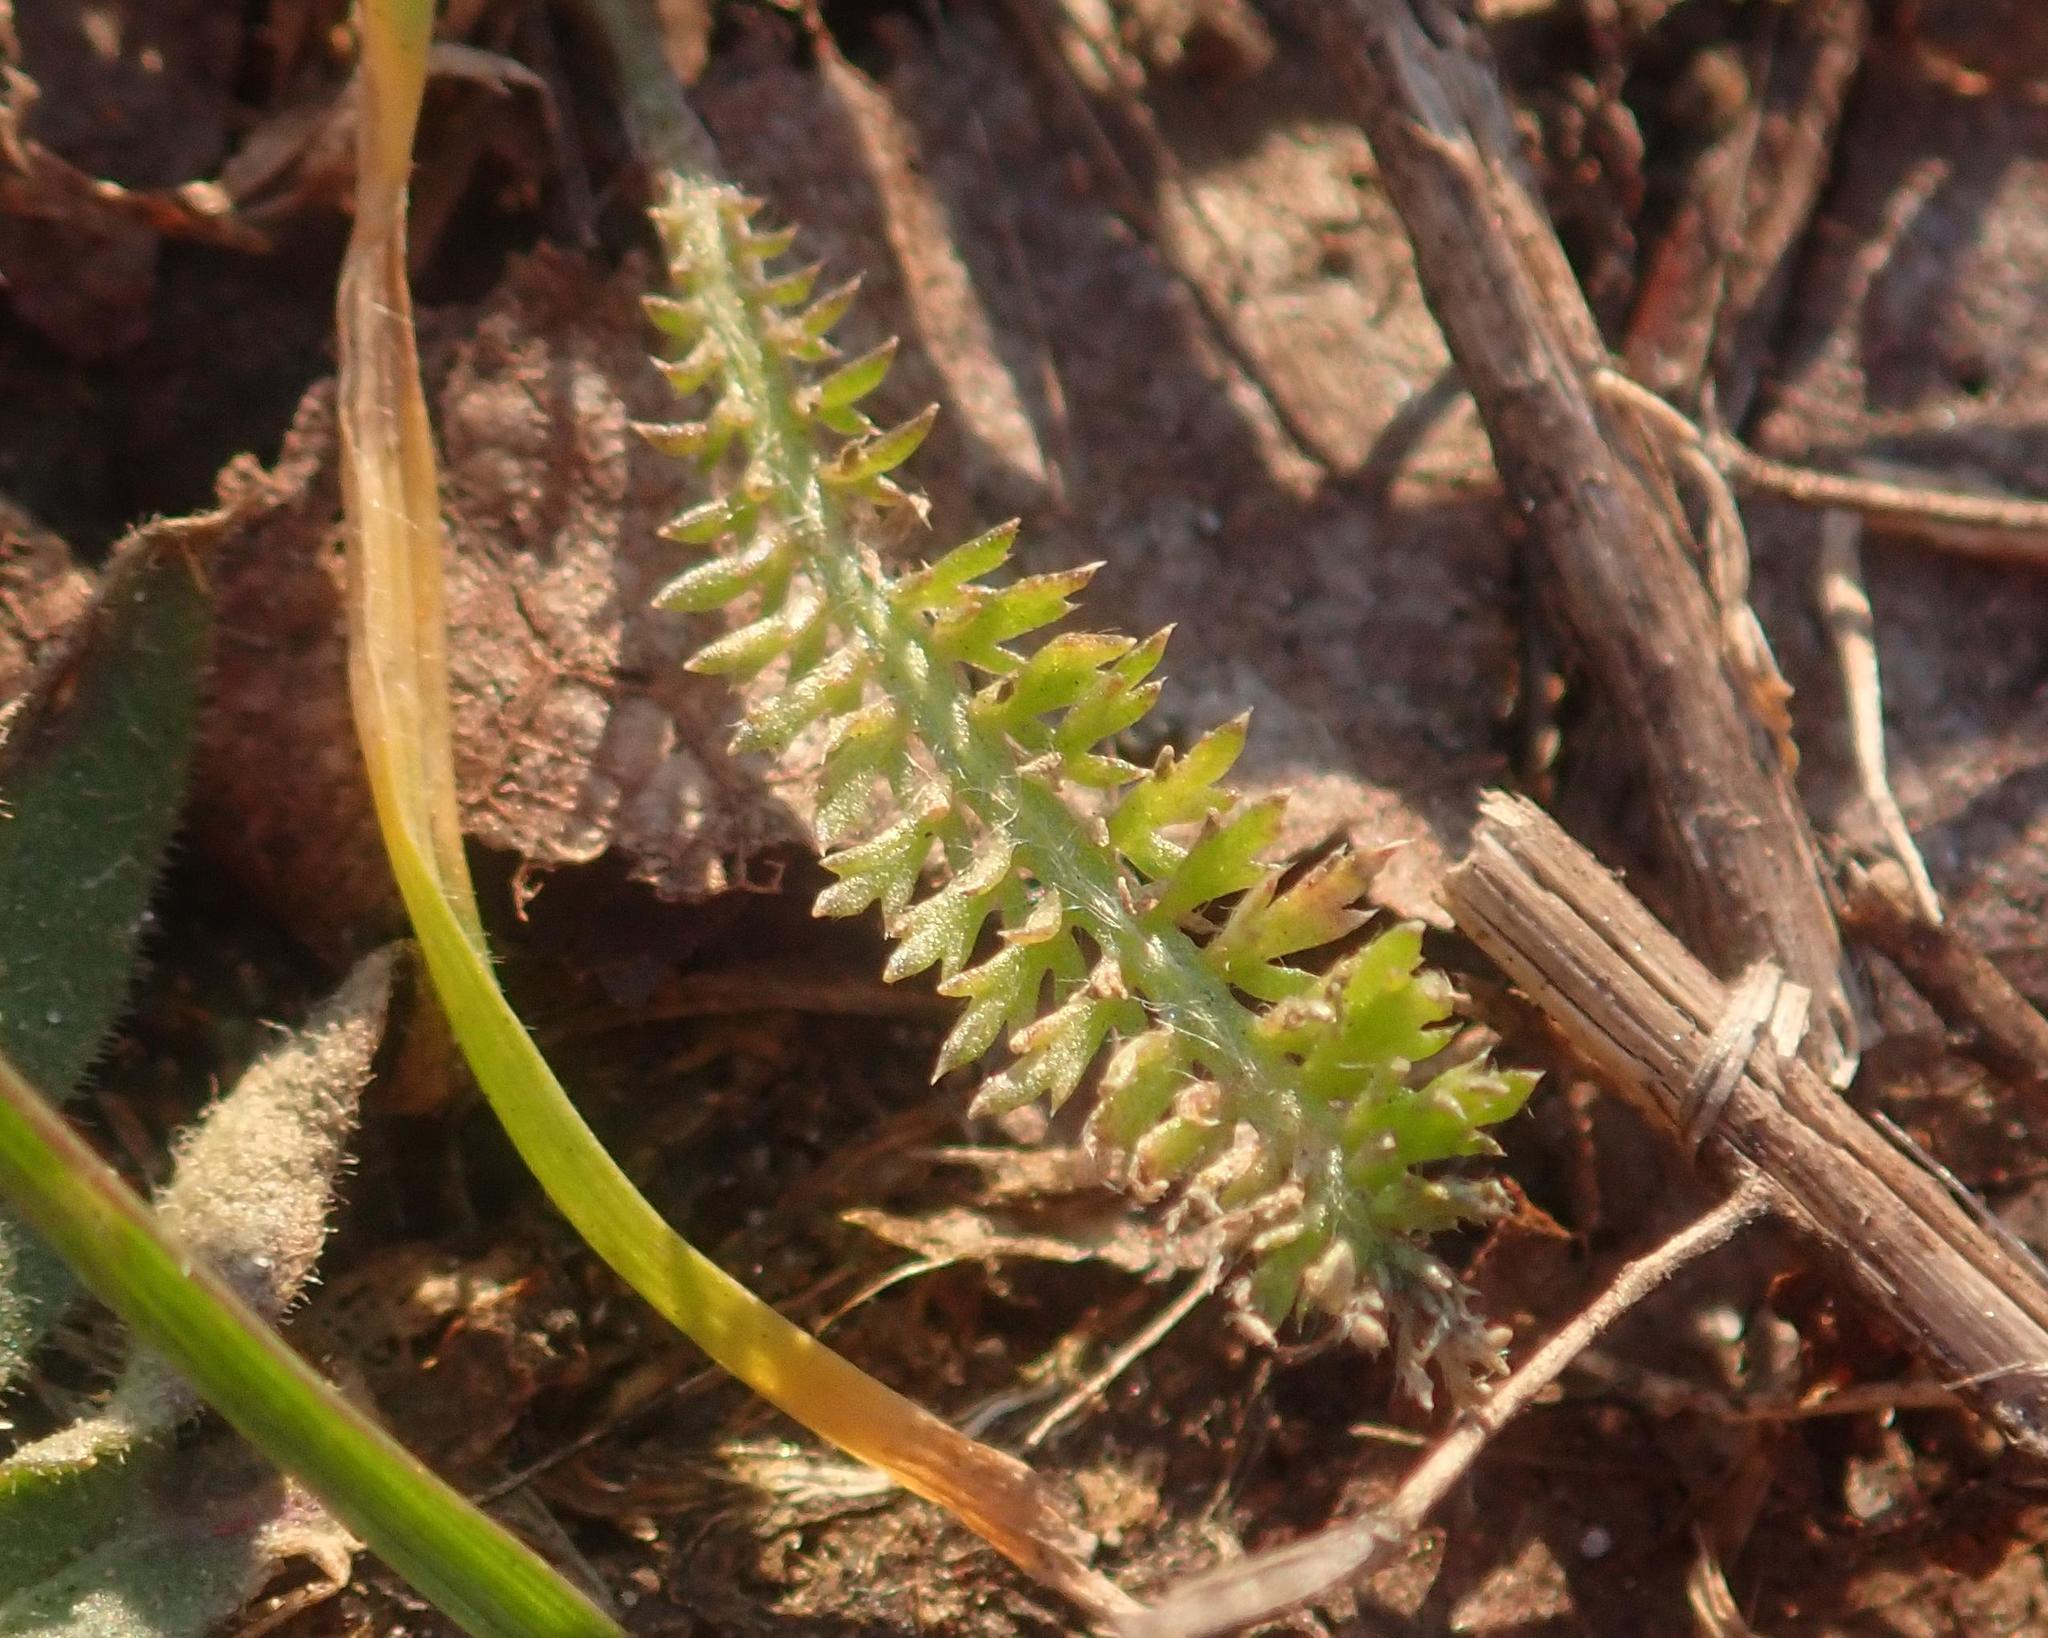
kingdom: Plantae
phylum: Tracheophyta
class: Magnoliopsida
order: Asterales
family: Asteraceae
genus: Achillea
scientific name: Achillea millefolium
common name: Yarrow
